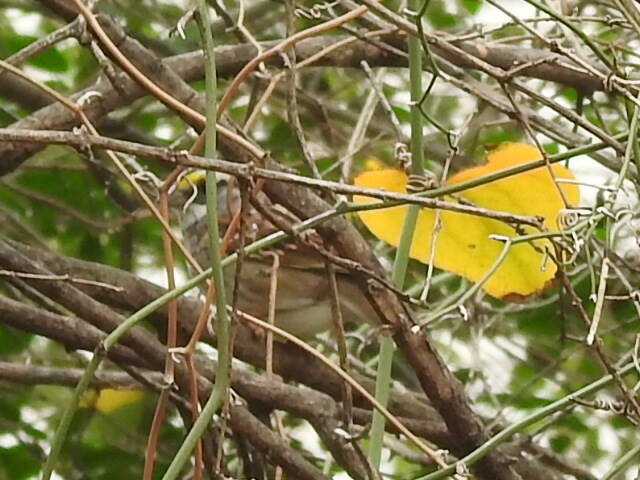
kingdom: Animalia
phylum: Chordata
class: Aves
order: Passeriformes
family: Passerellidae
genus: Zonotrichia
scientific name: Zonotrichia albicollis
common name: White-throated sparrow
